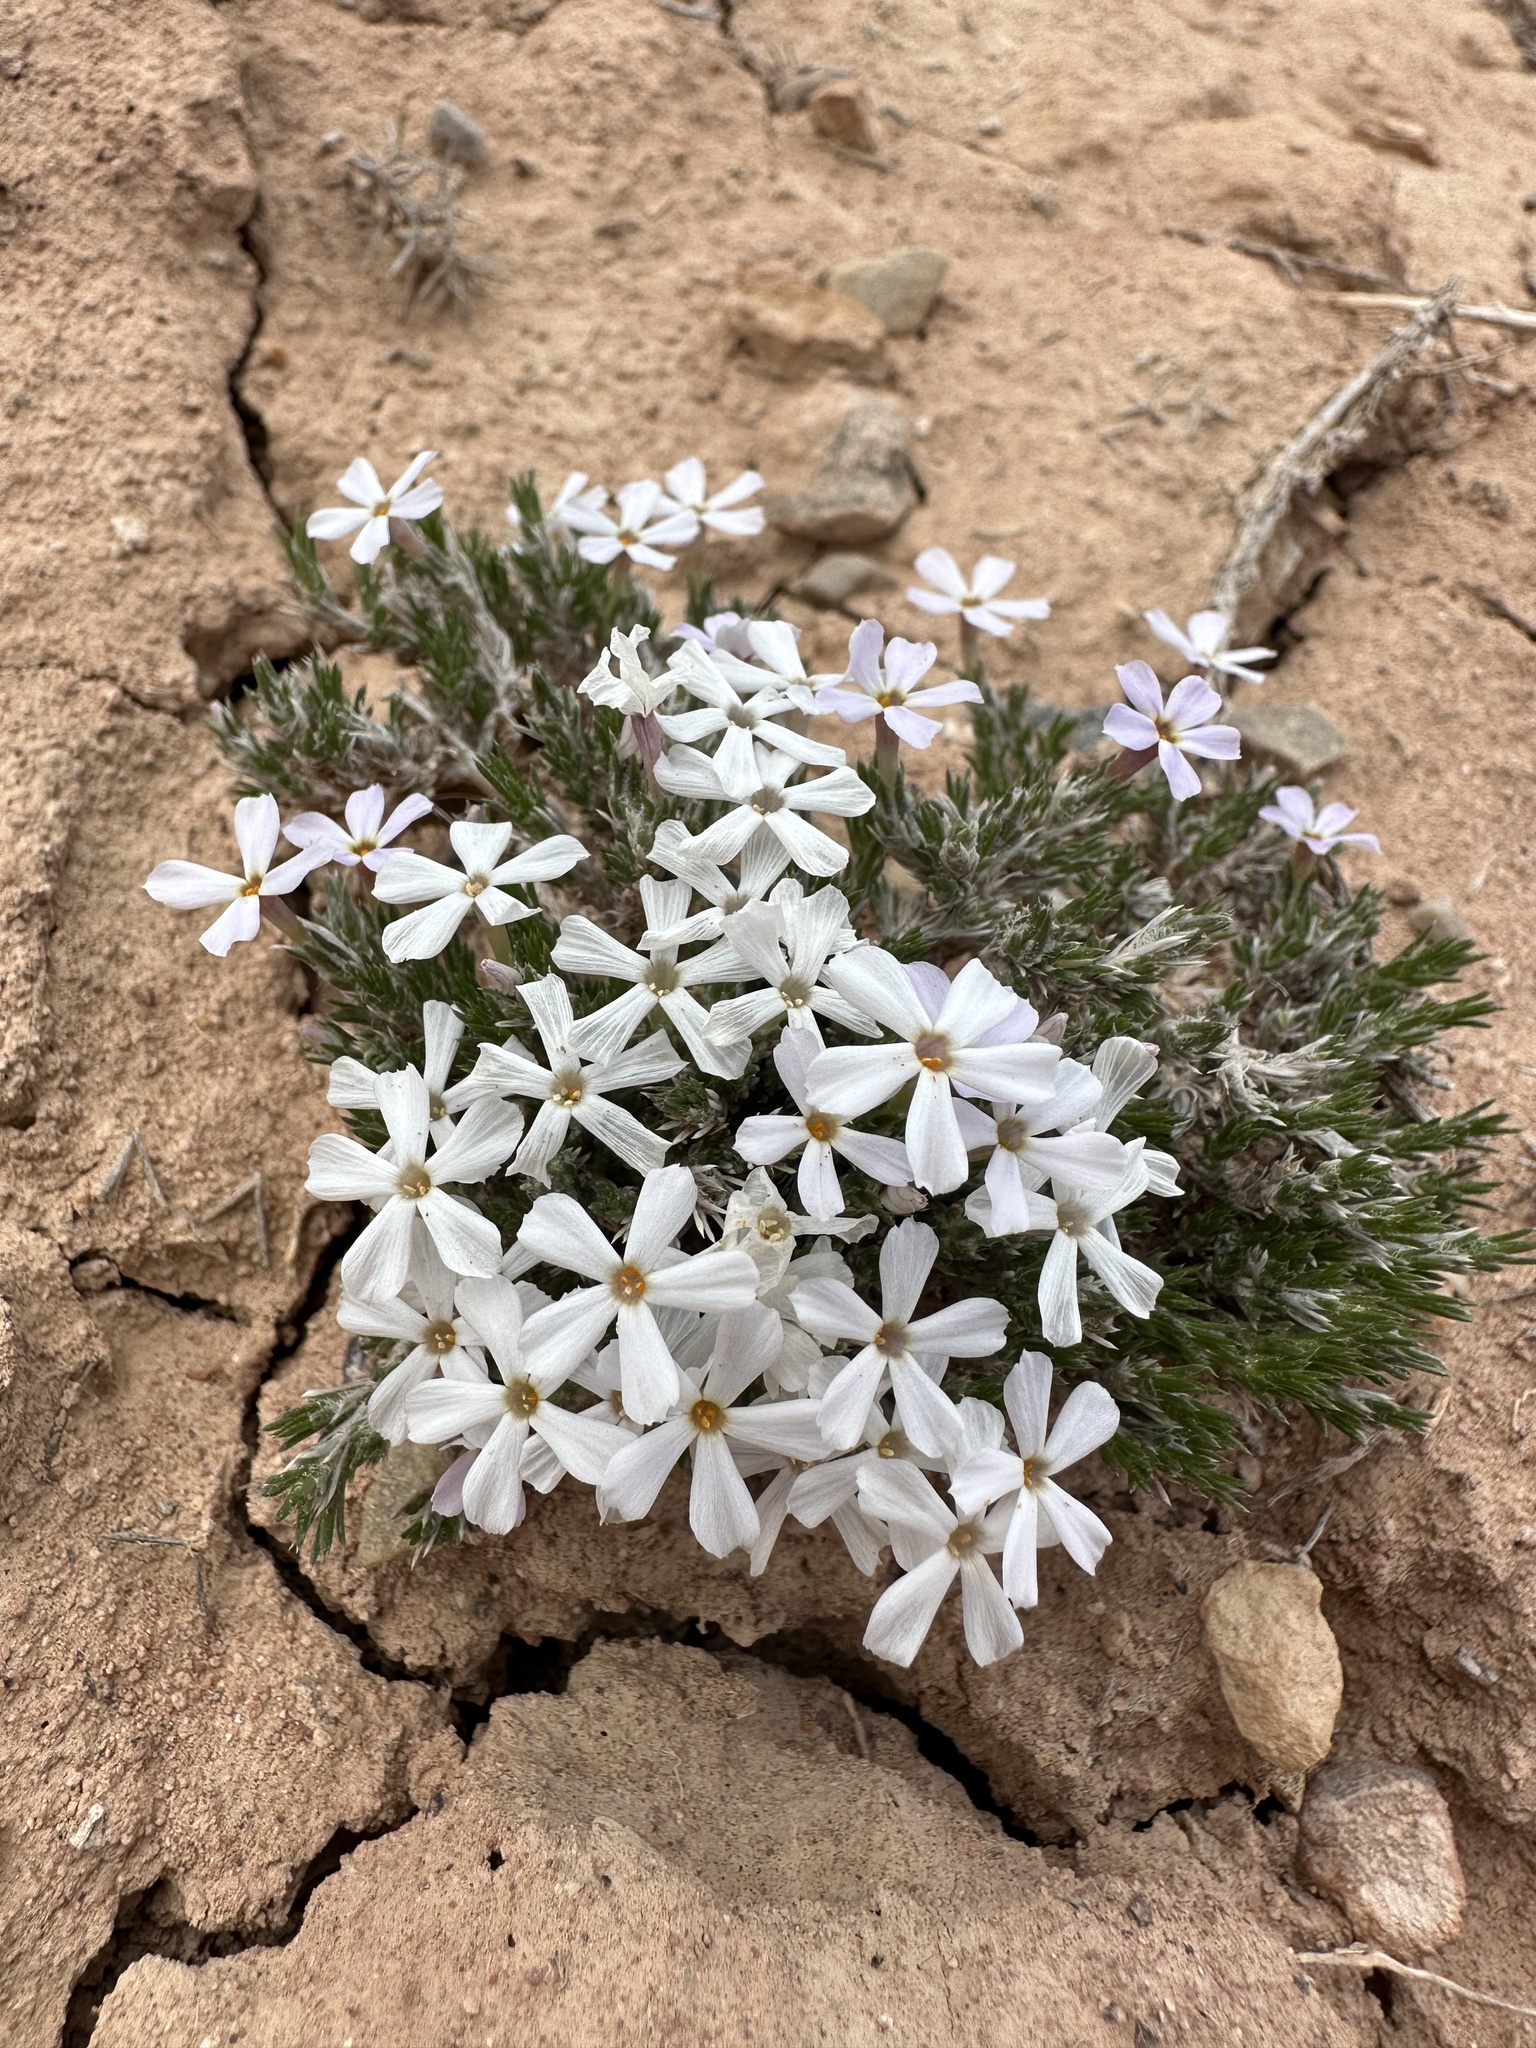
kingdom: Plantae
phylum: Tracheophyta
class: Magnoliopsida
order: Ericales
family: Polemoniaceae
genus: Phlox
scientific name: Phlox hoodii
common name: Moss phlox
